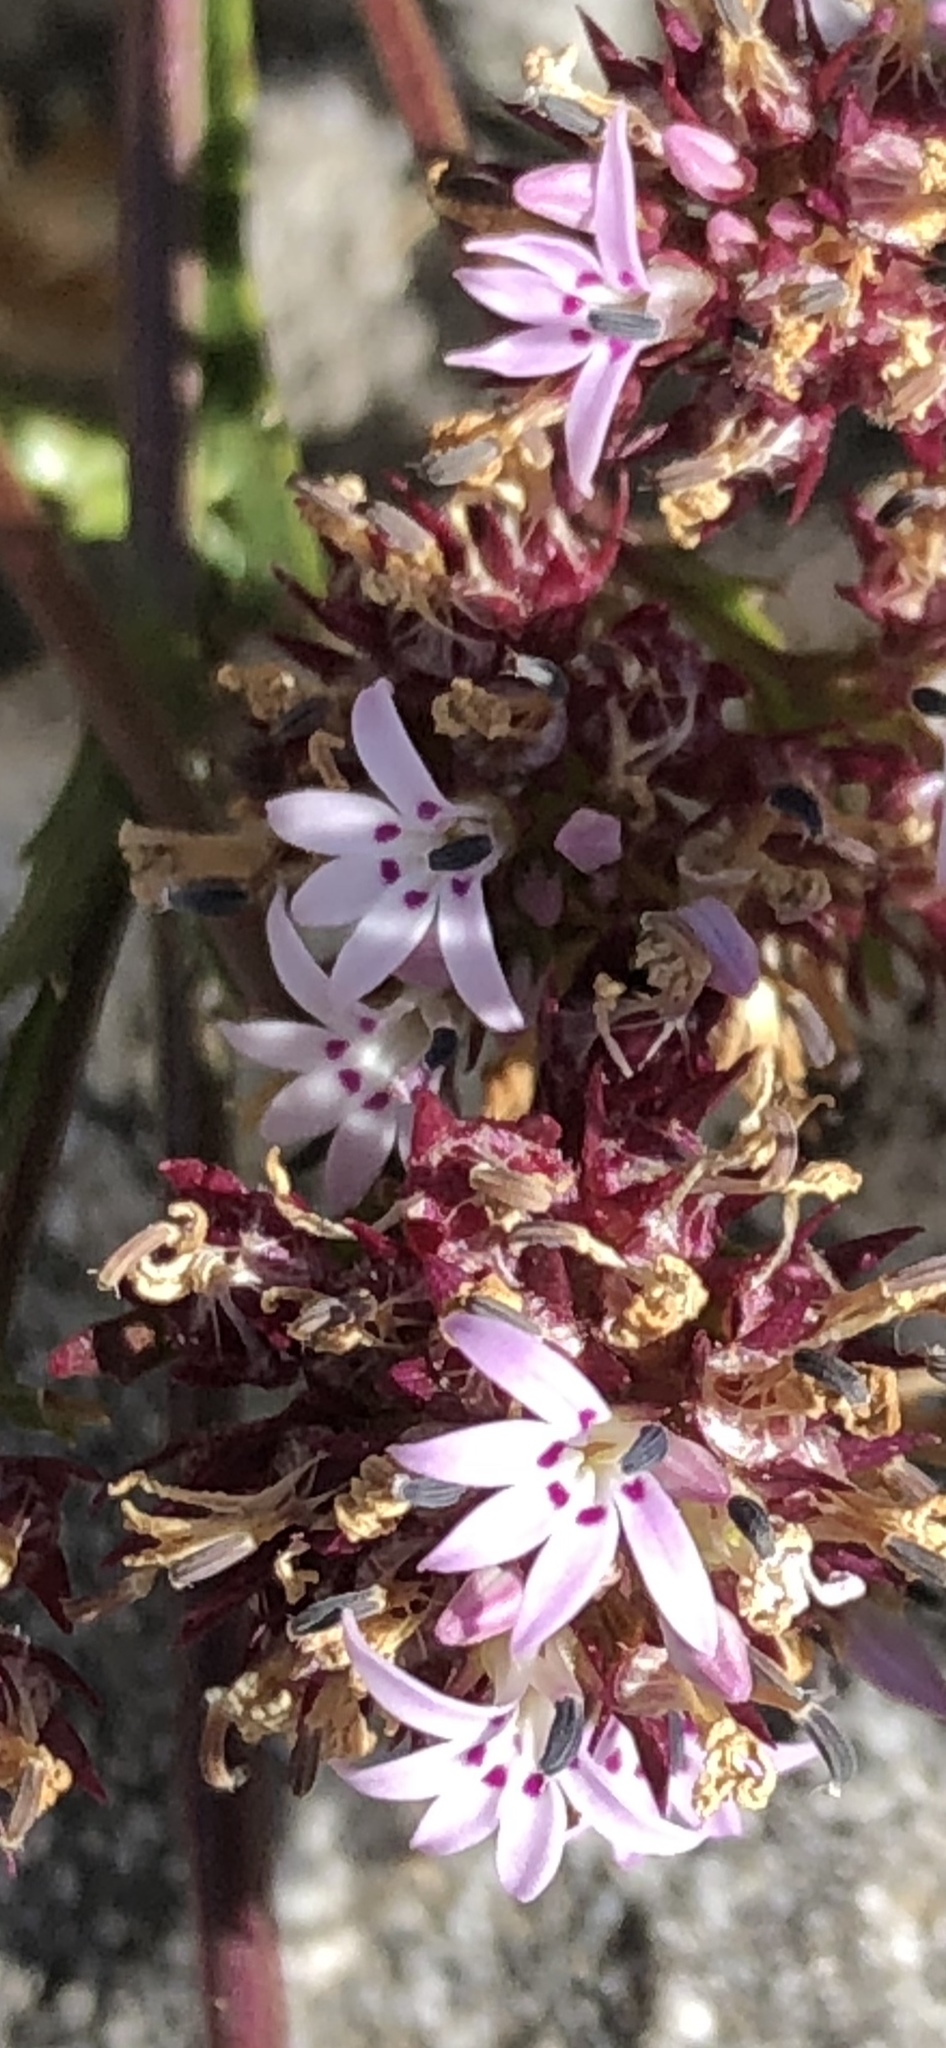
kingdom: Plantae
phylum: Tracheophyta
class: Magnoliopsida
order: Asterales
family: Campanulaceae
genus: Lobelia
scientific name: Lobelia jasionoides
